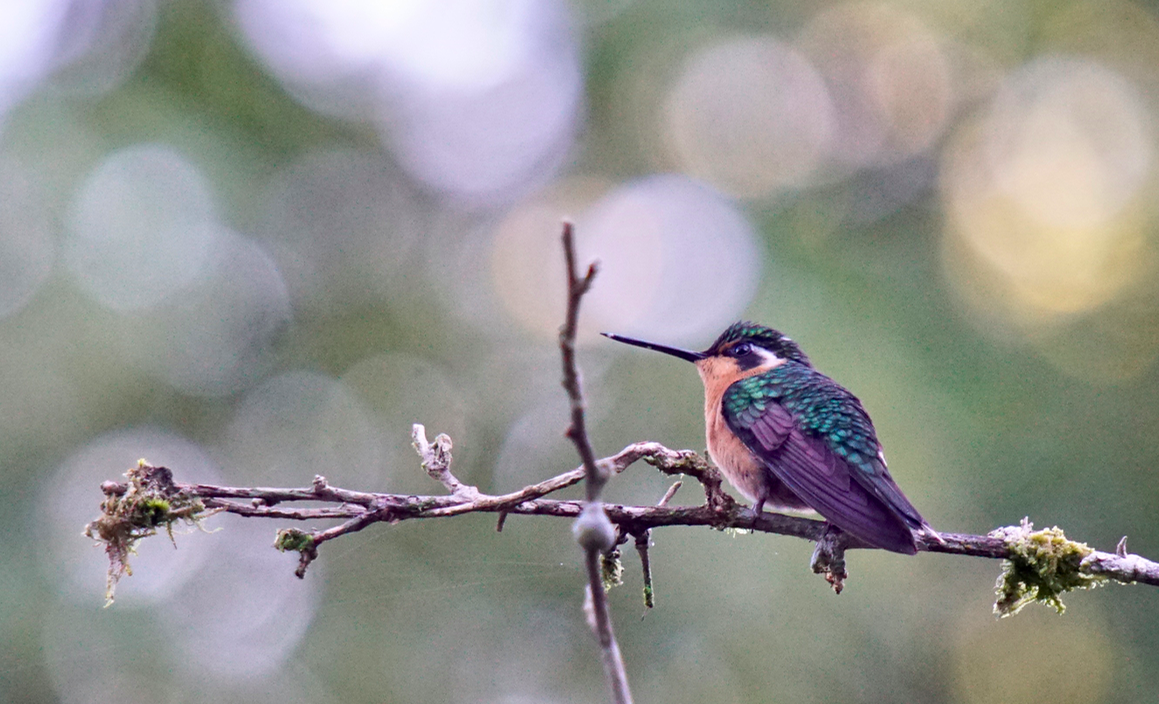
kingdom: Animalia
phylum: Chordata
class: Aves
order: Apodiformes
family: Trochilidae
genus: Lampornis
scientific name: Lampornis calolaemus
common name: Purple-throated mountain-gem
